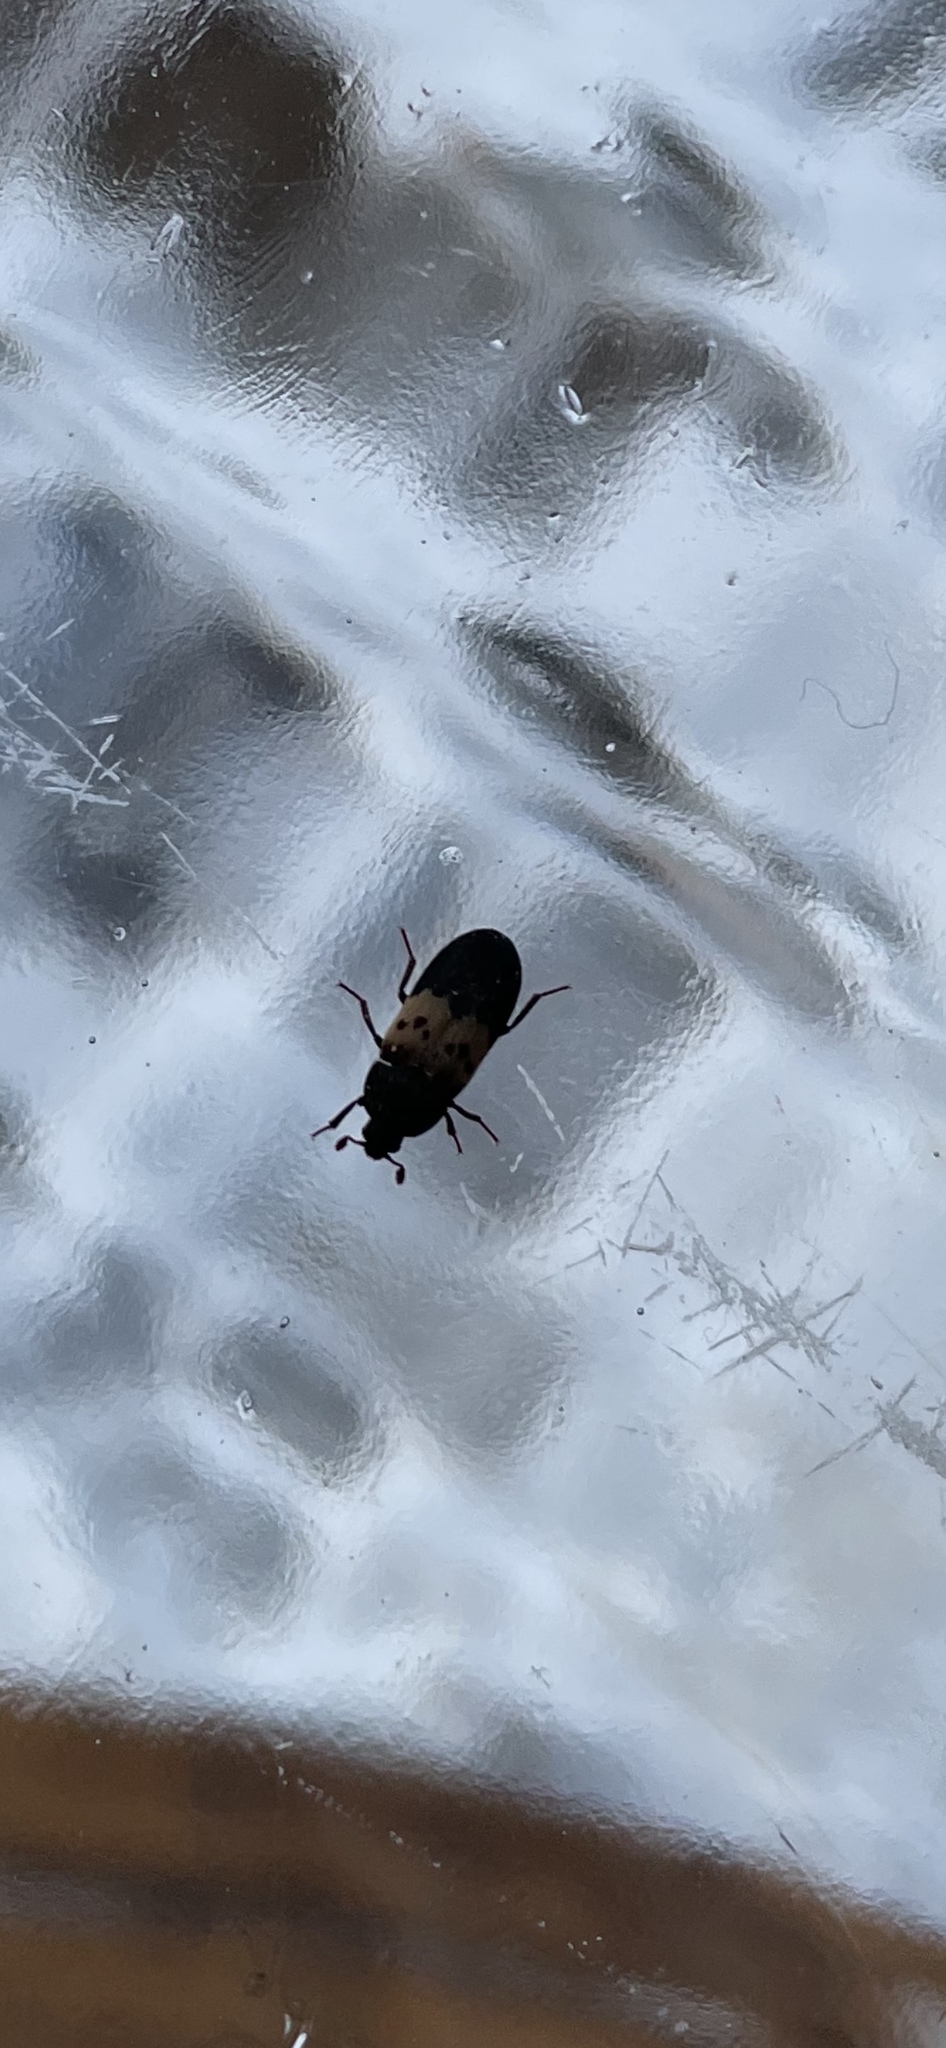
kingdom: Animalia
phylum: Arthropoda
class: Insecta
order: Coleoptera
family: Dermestidae
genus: Dermestes
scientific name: Dermestes lardarius
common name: Larder beetle
